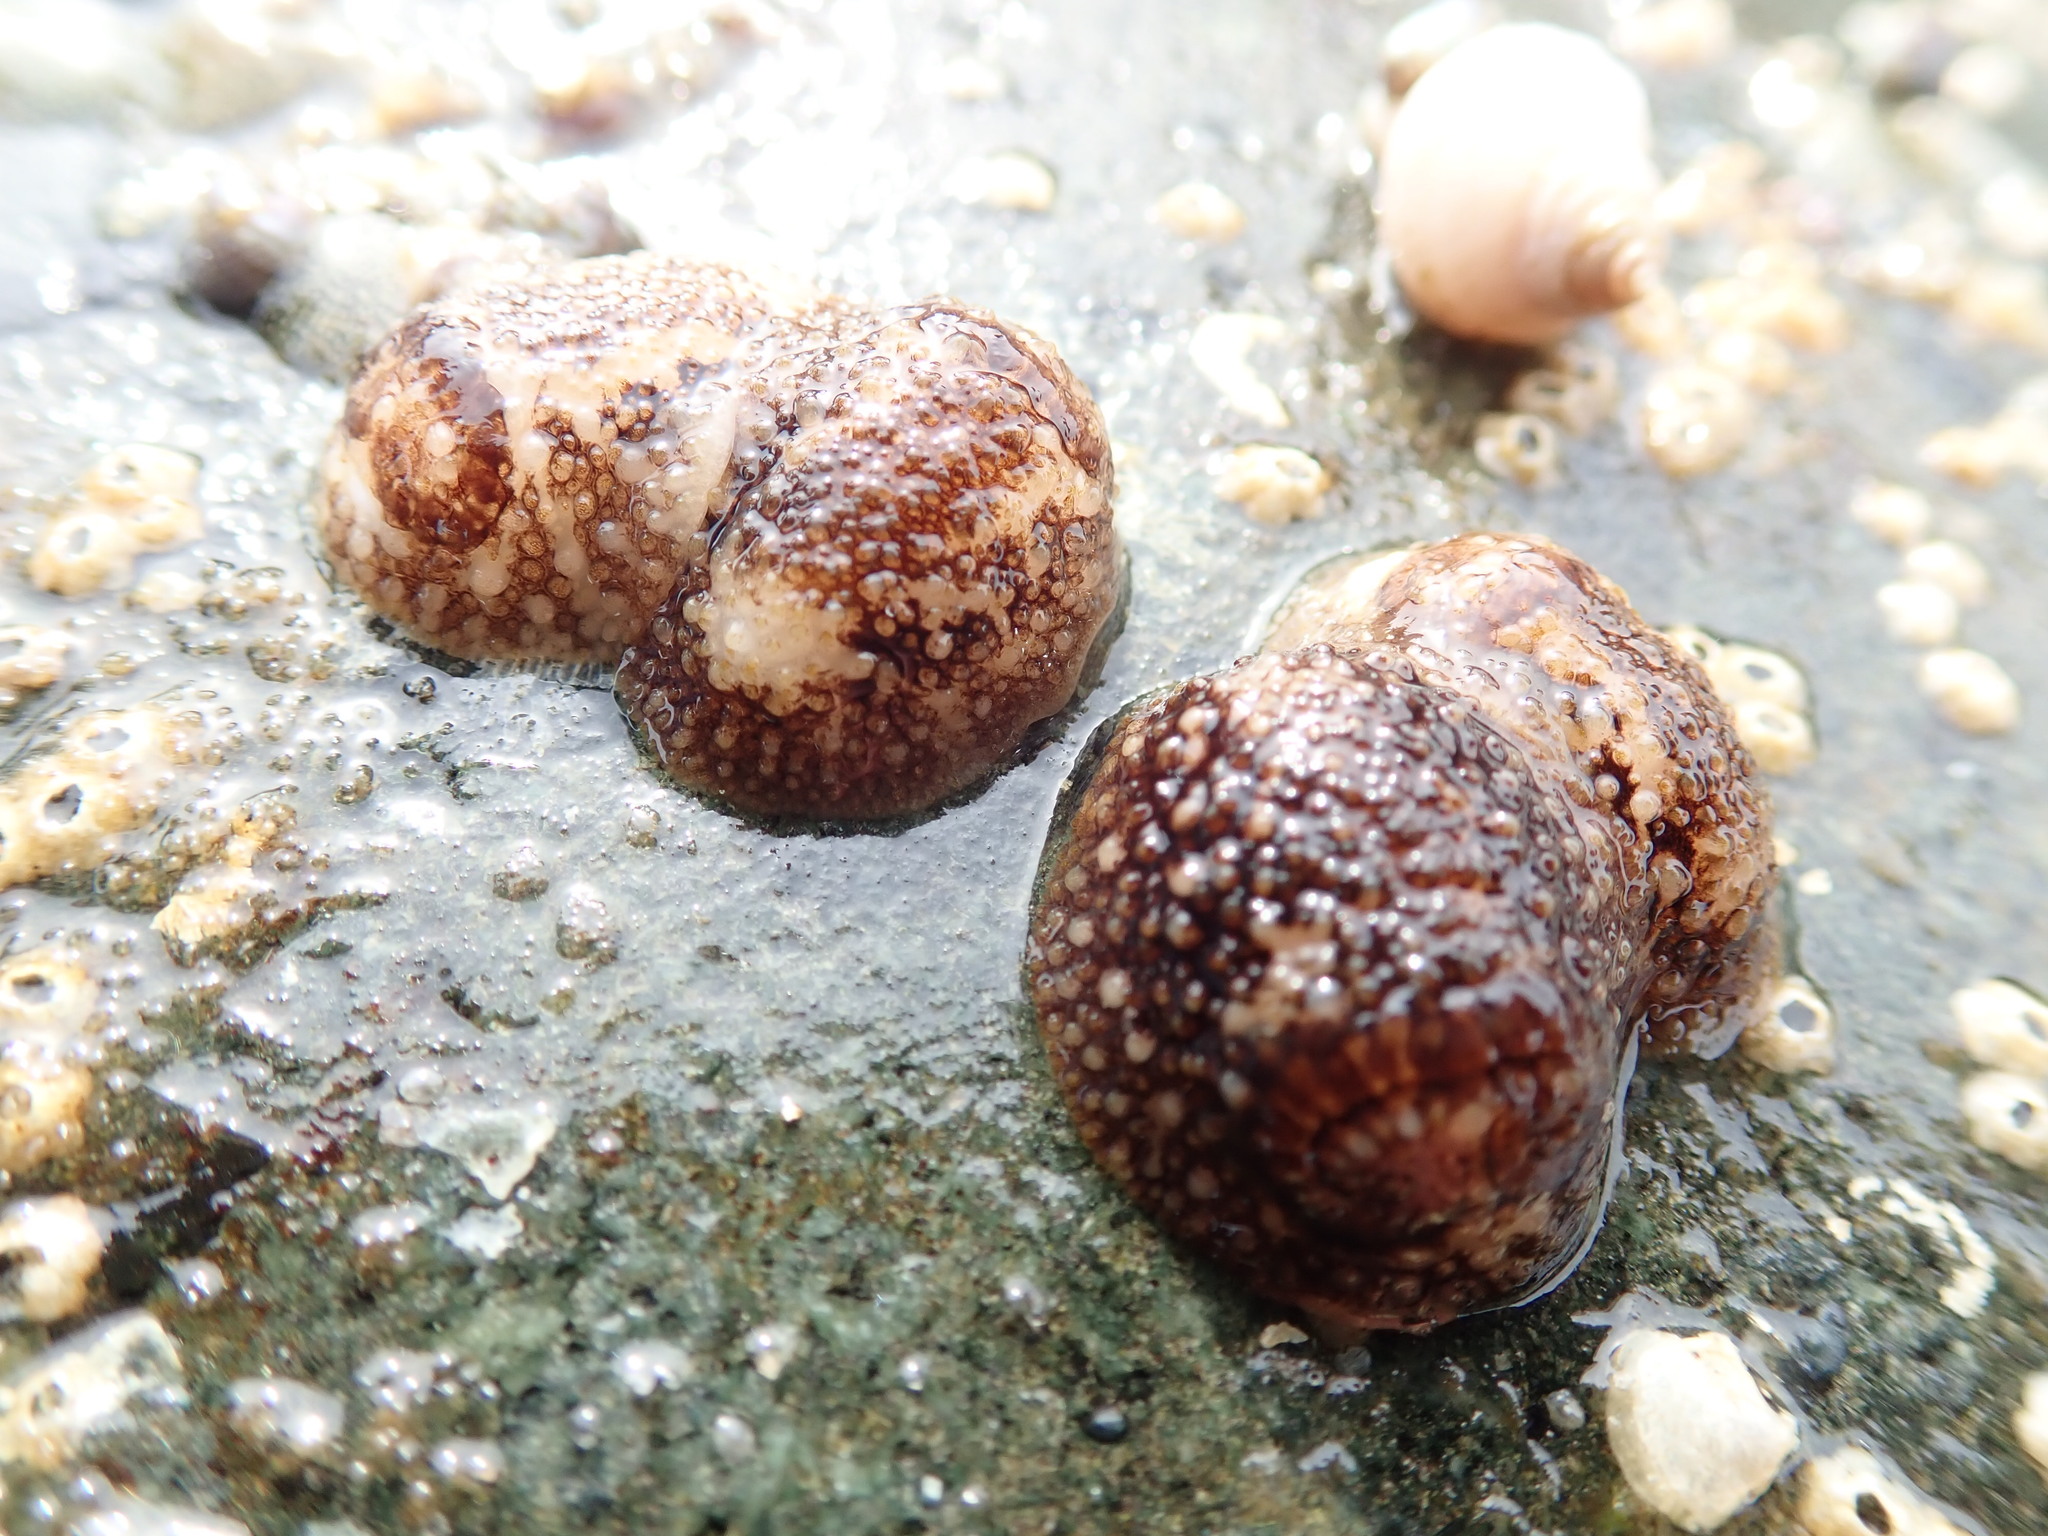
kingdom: Animalia
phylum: Mollusca
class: Gastropoda
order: Nudibranchia
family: Onchidorididae
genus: Onchidoris
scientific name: Onchidoris bilamellata
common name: Barnacle-eating onchidoris
